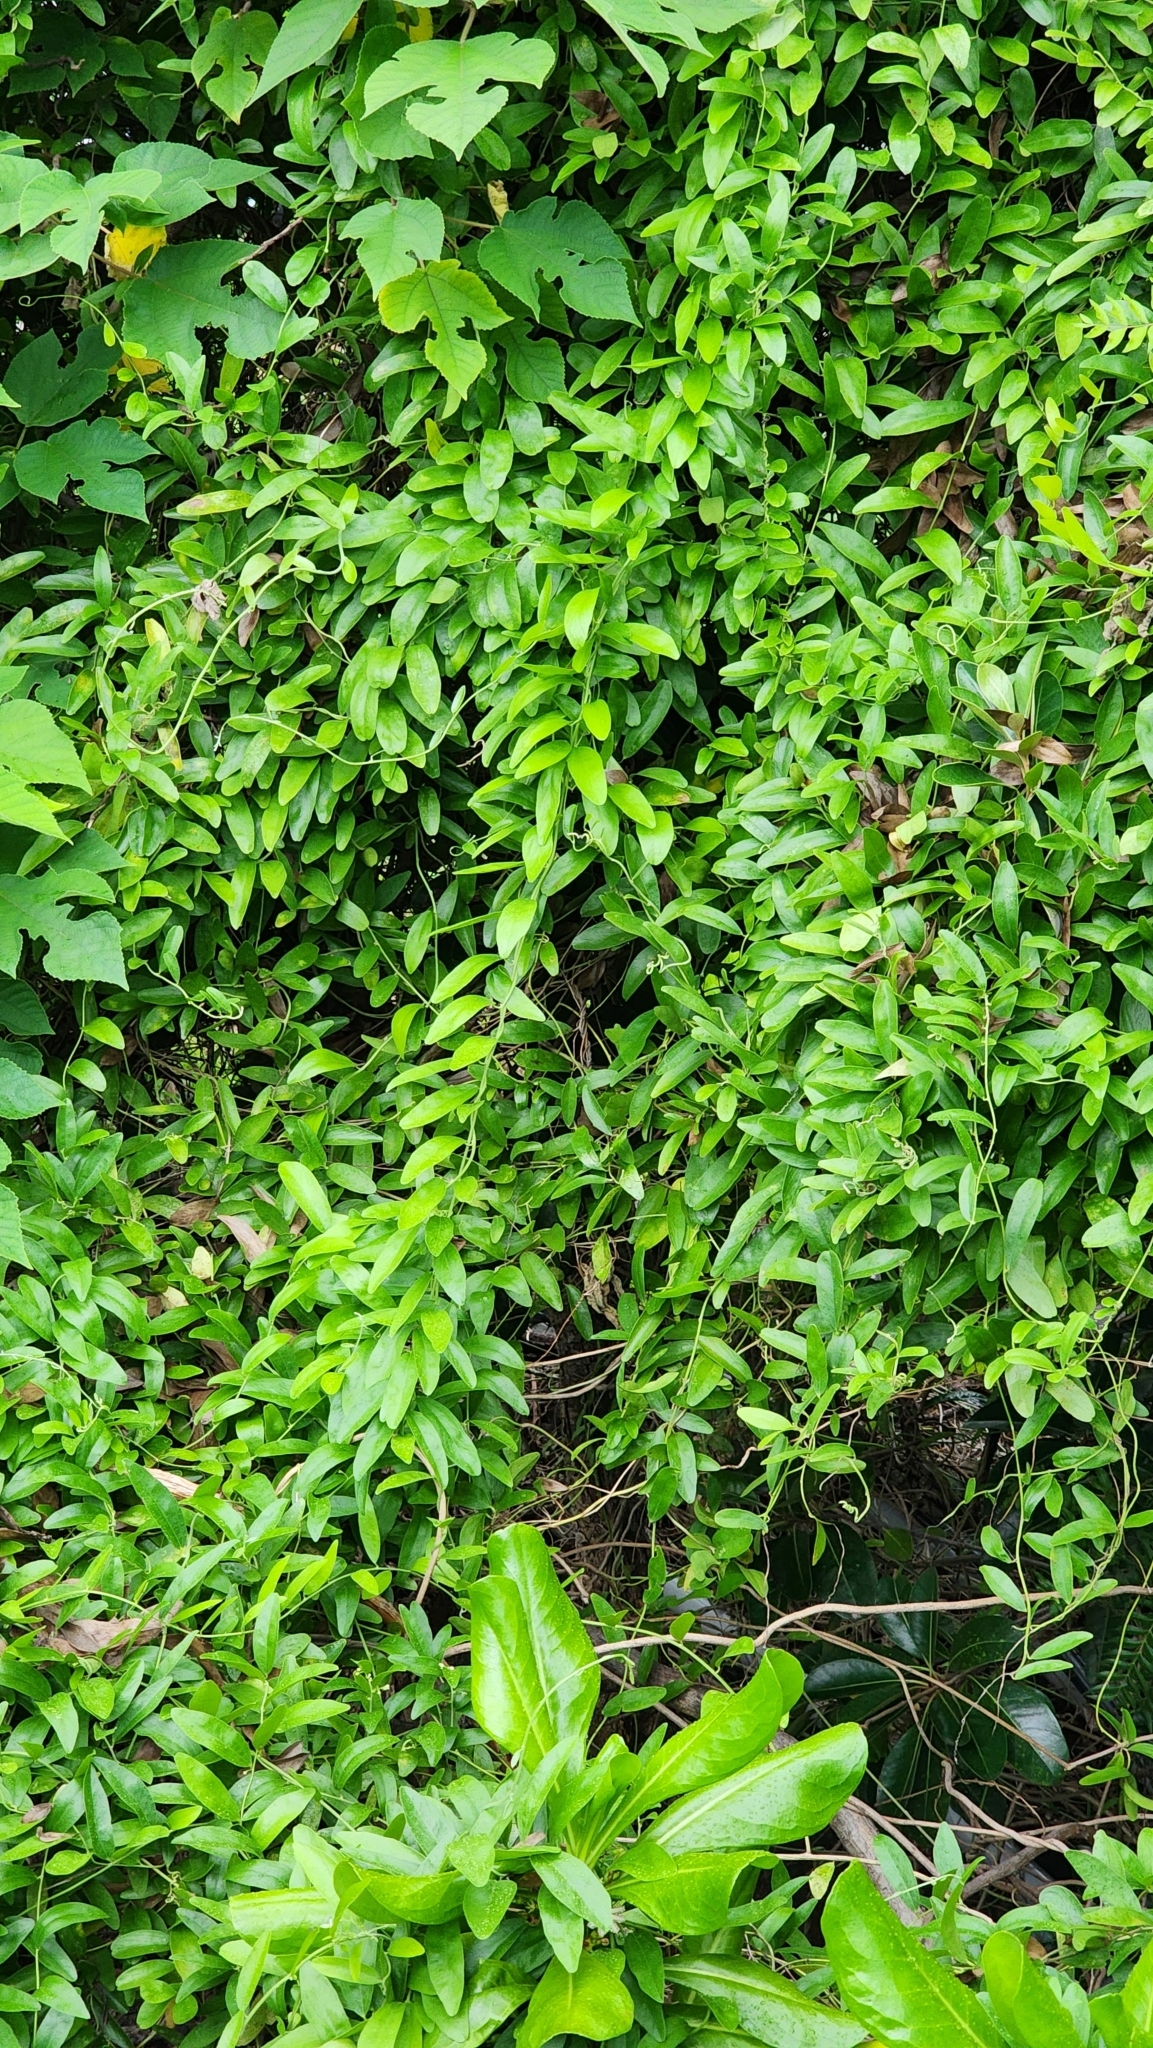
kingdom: Plantae
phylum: Tracheophyta
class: Magnoliopsida
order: Gentianales
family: Rubiaceae
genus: Paederia
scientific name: Paederia foetida
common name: Stinkvine
